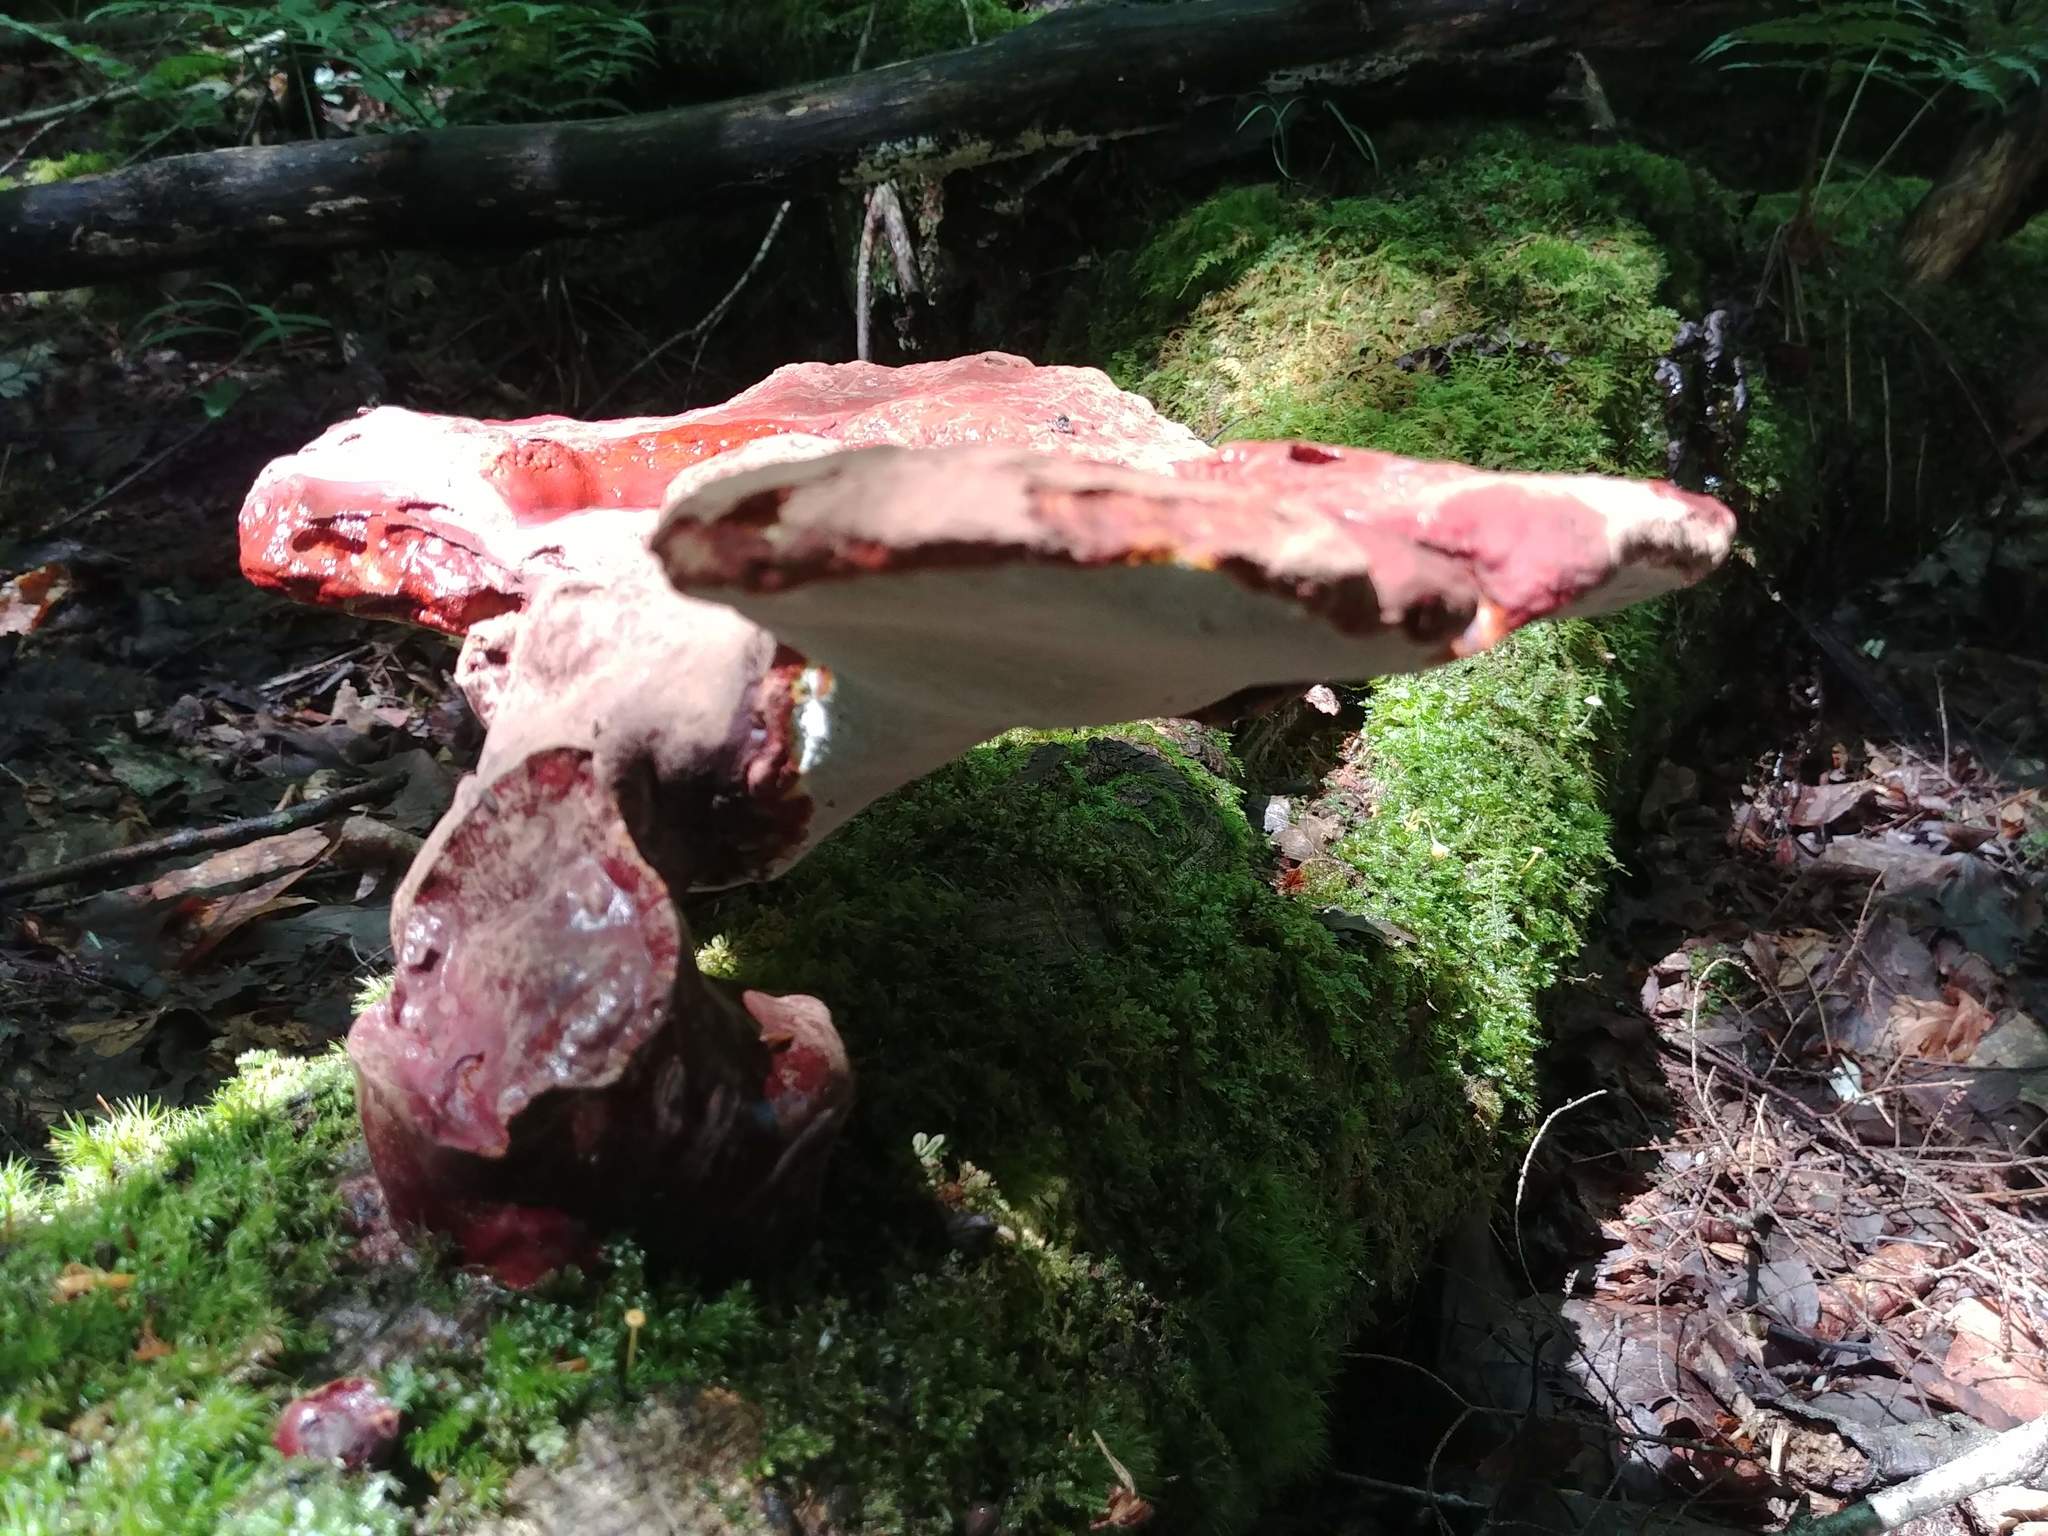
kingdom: Fungi
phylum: Basidiomycota
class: Agaricomycetes
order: Polyporales
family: Polyporaceae
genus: Ganoderma
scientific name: Ganoderma tsugae
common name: Hemlock varnish shelf
